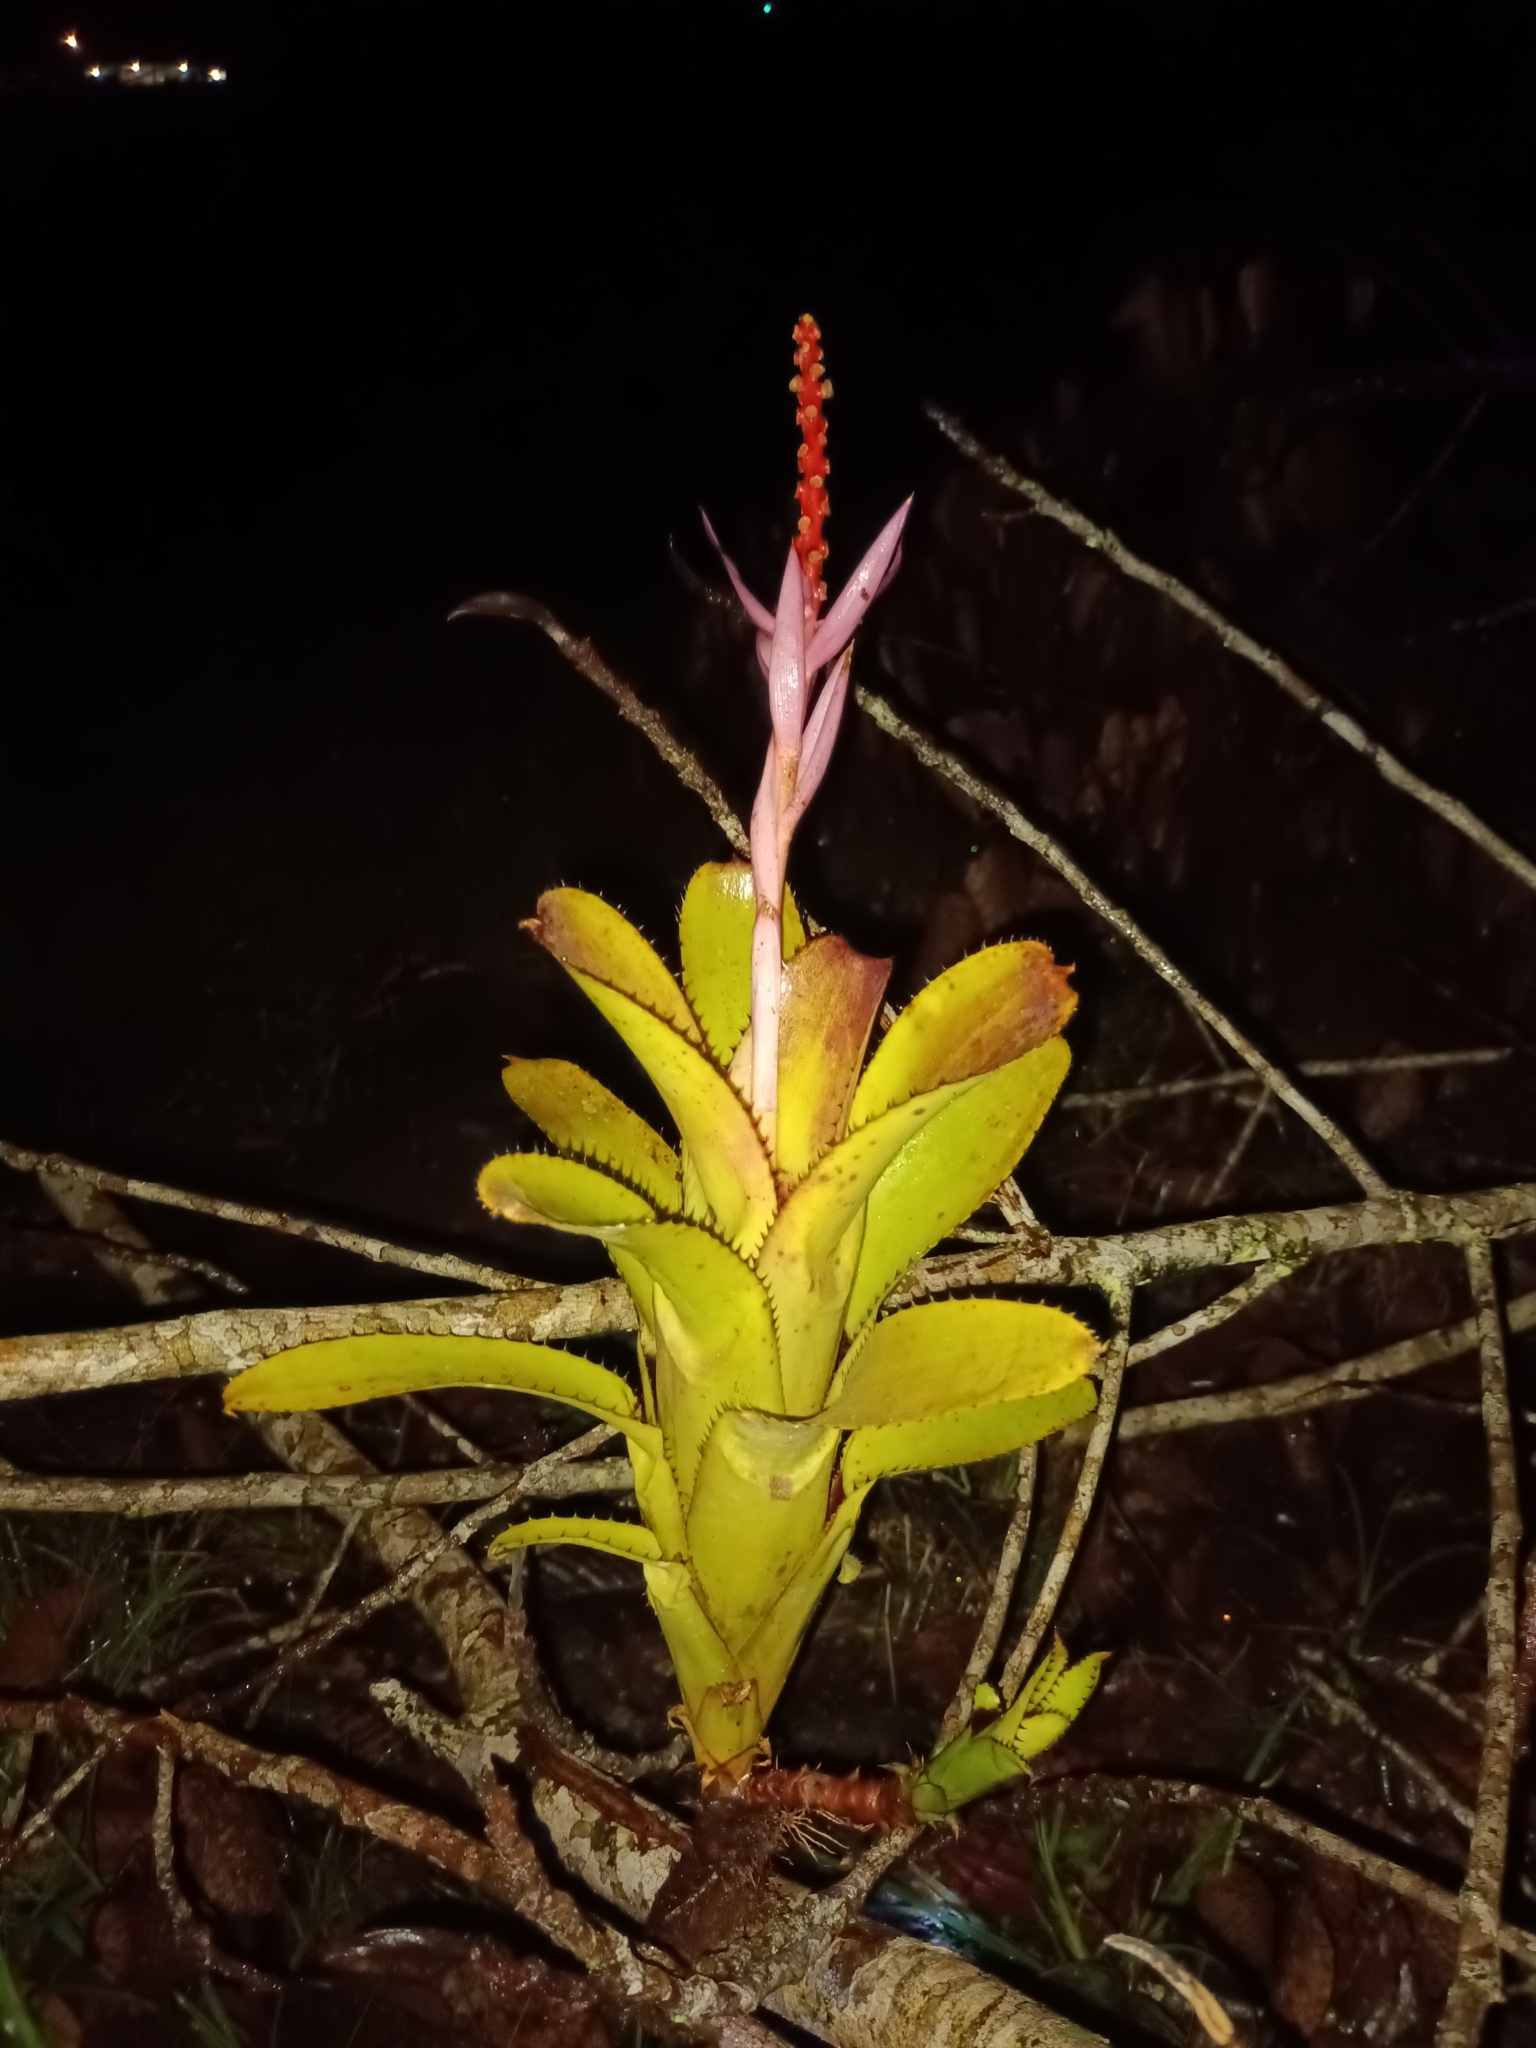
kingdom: Plantae
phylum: Tracheophyta
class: Liliopsida
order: Poales
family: Bromeliaceae
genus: Aechmea
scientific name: Aechmea nudicaulis
